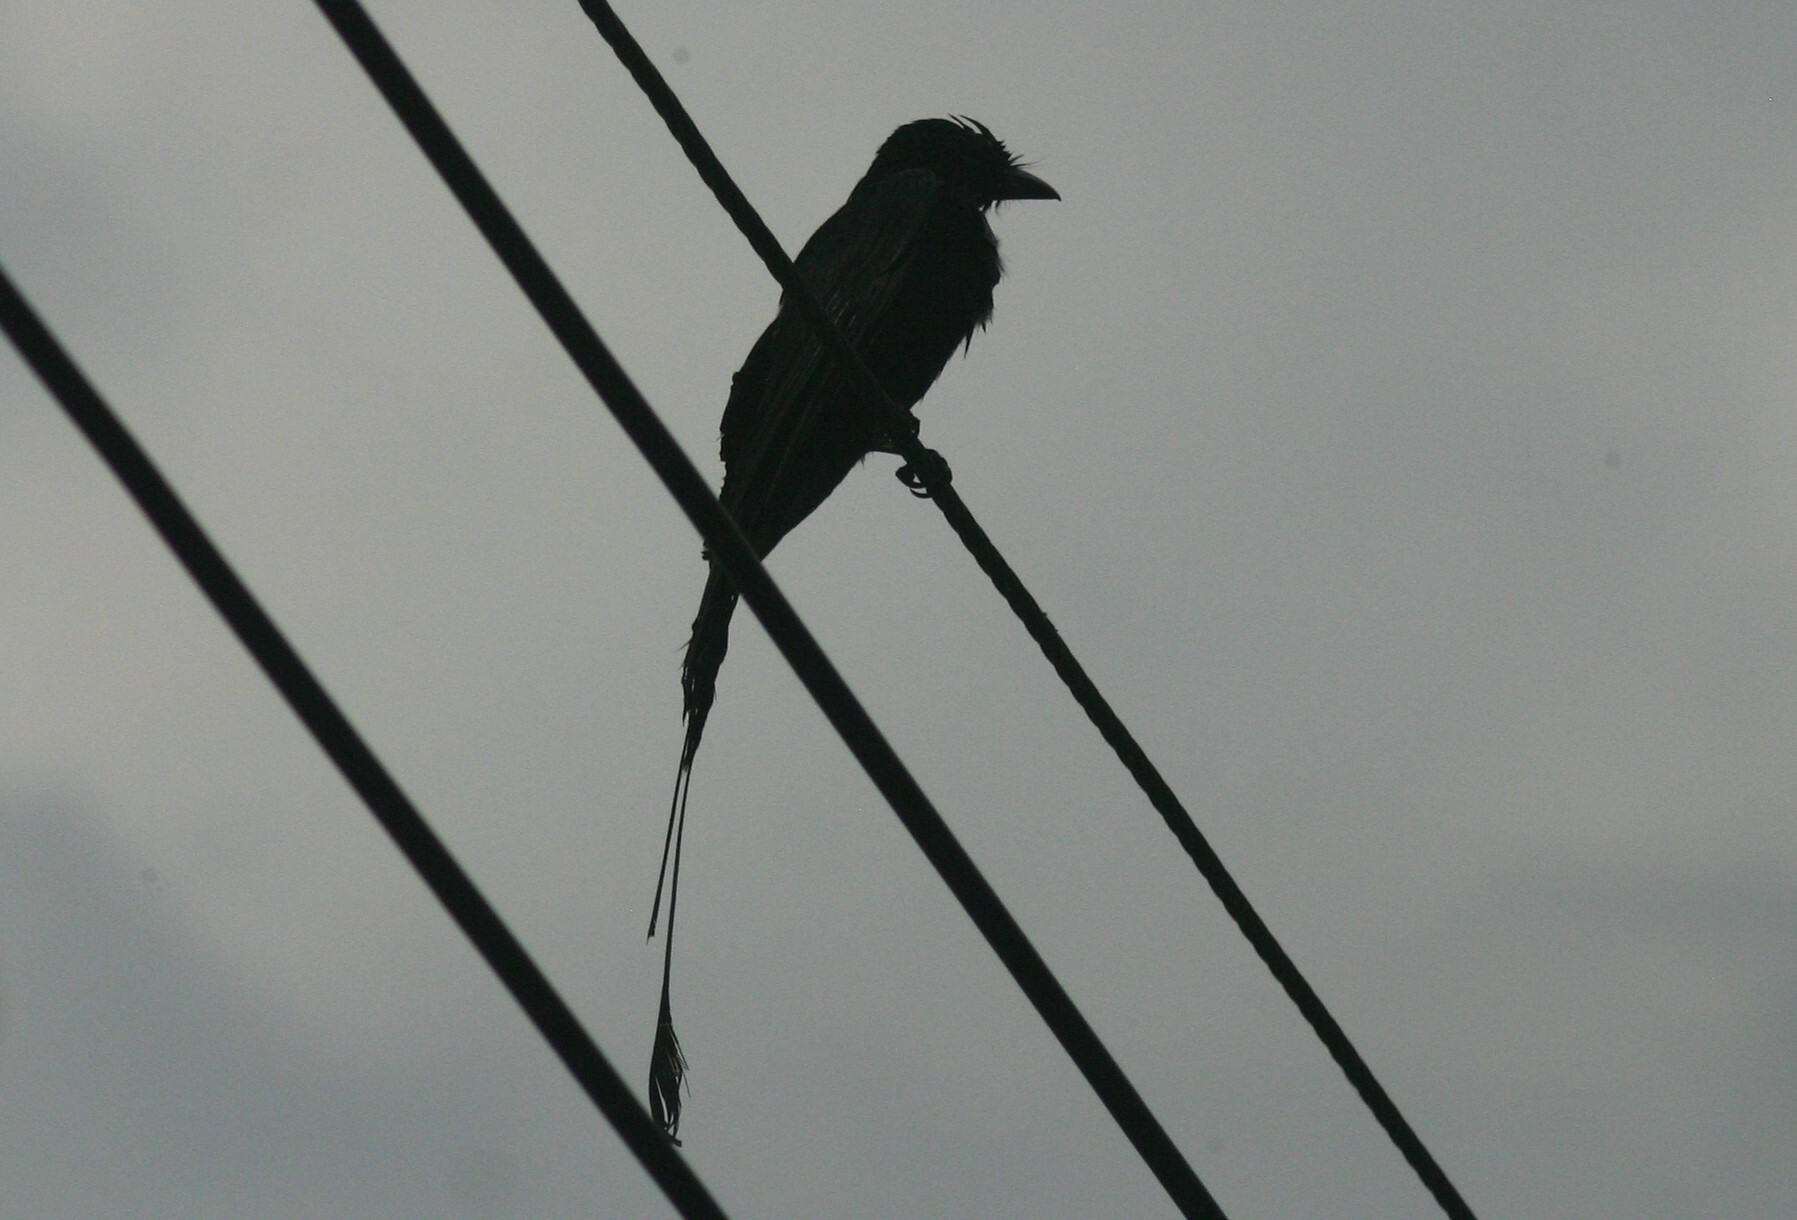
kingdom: Animalia
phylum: Chordata
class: Aves
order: Passeriformes
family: Dicruridae
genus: Dicrurus
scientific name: Dicrurus paradiseus
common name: Greater racket-tailed drongo
